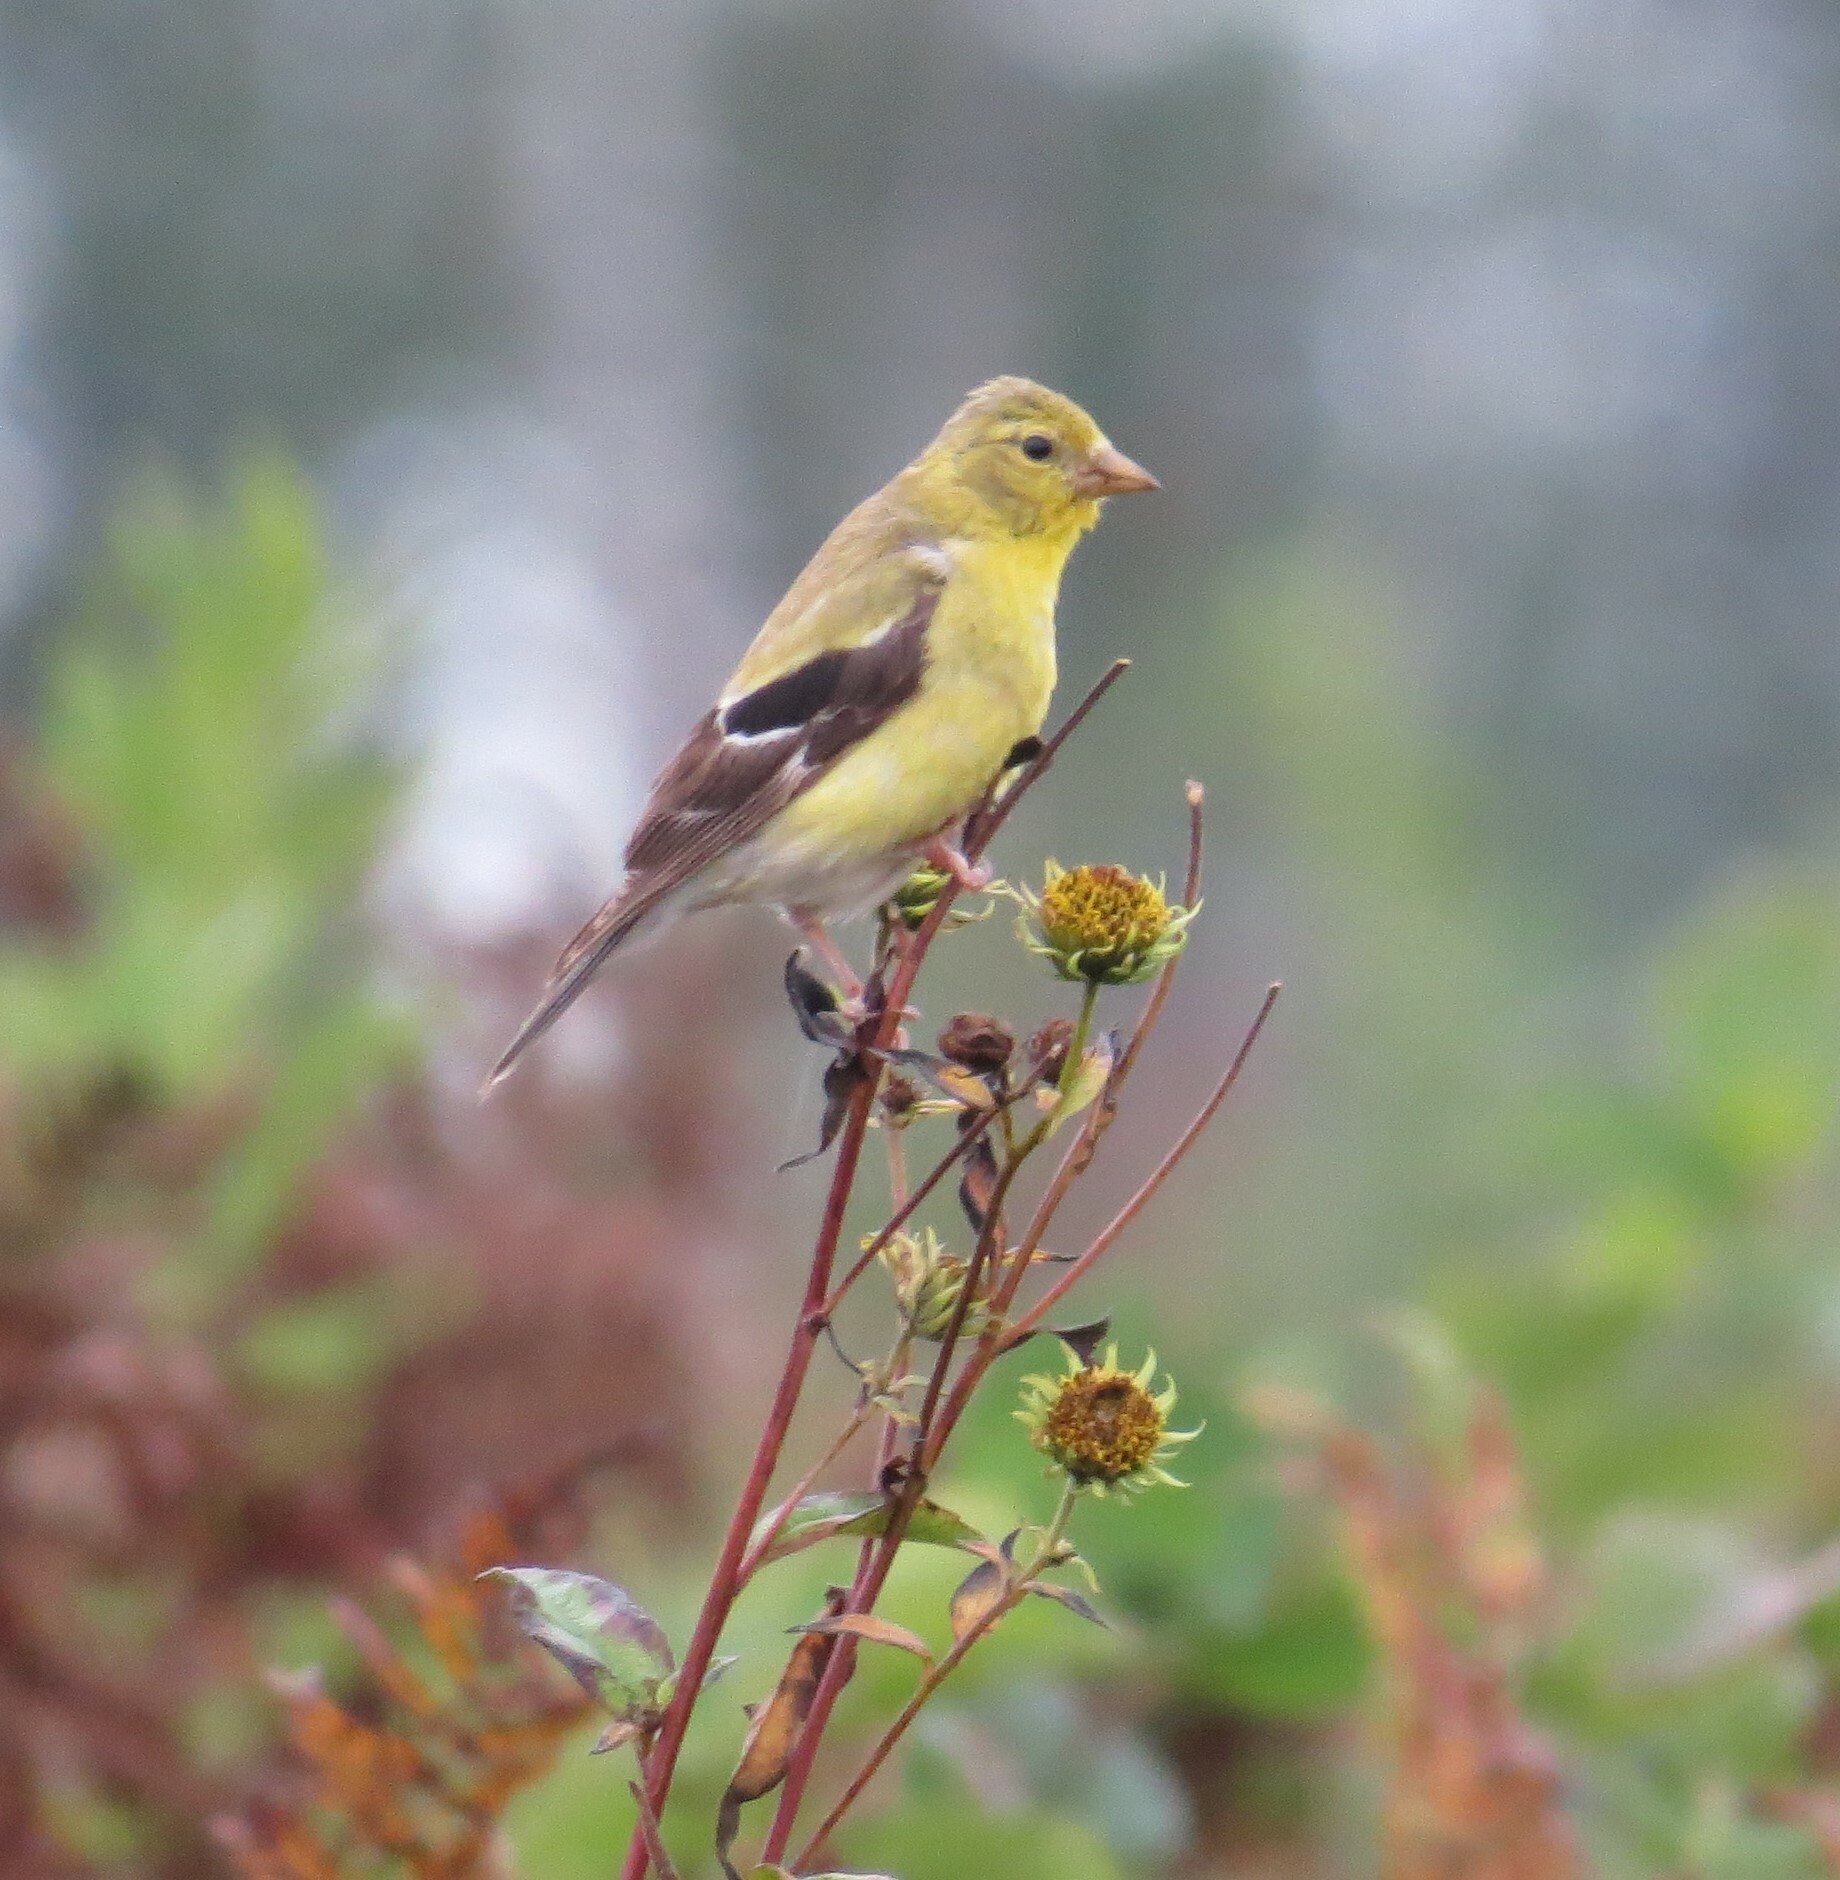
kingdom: Animalia
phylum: Chordata
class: Aves
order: Passeriformes
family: Fringillidae
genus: Spinus
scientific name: Spinus tristis
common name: American goldfinch
